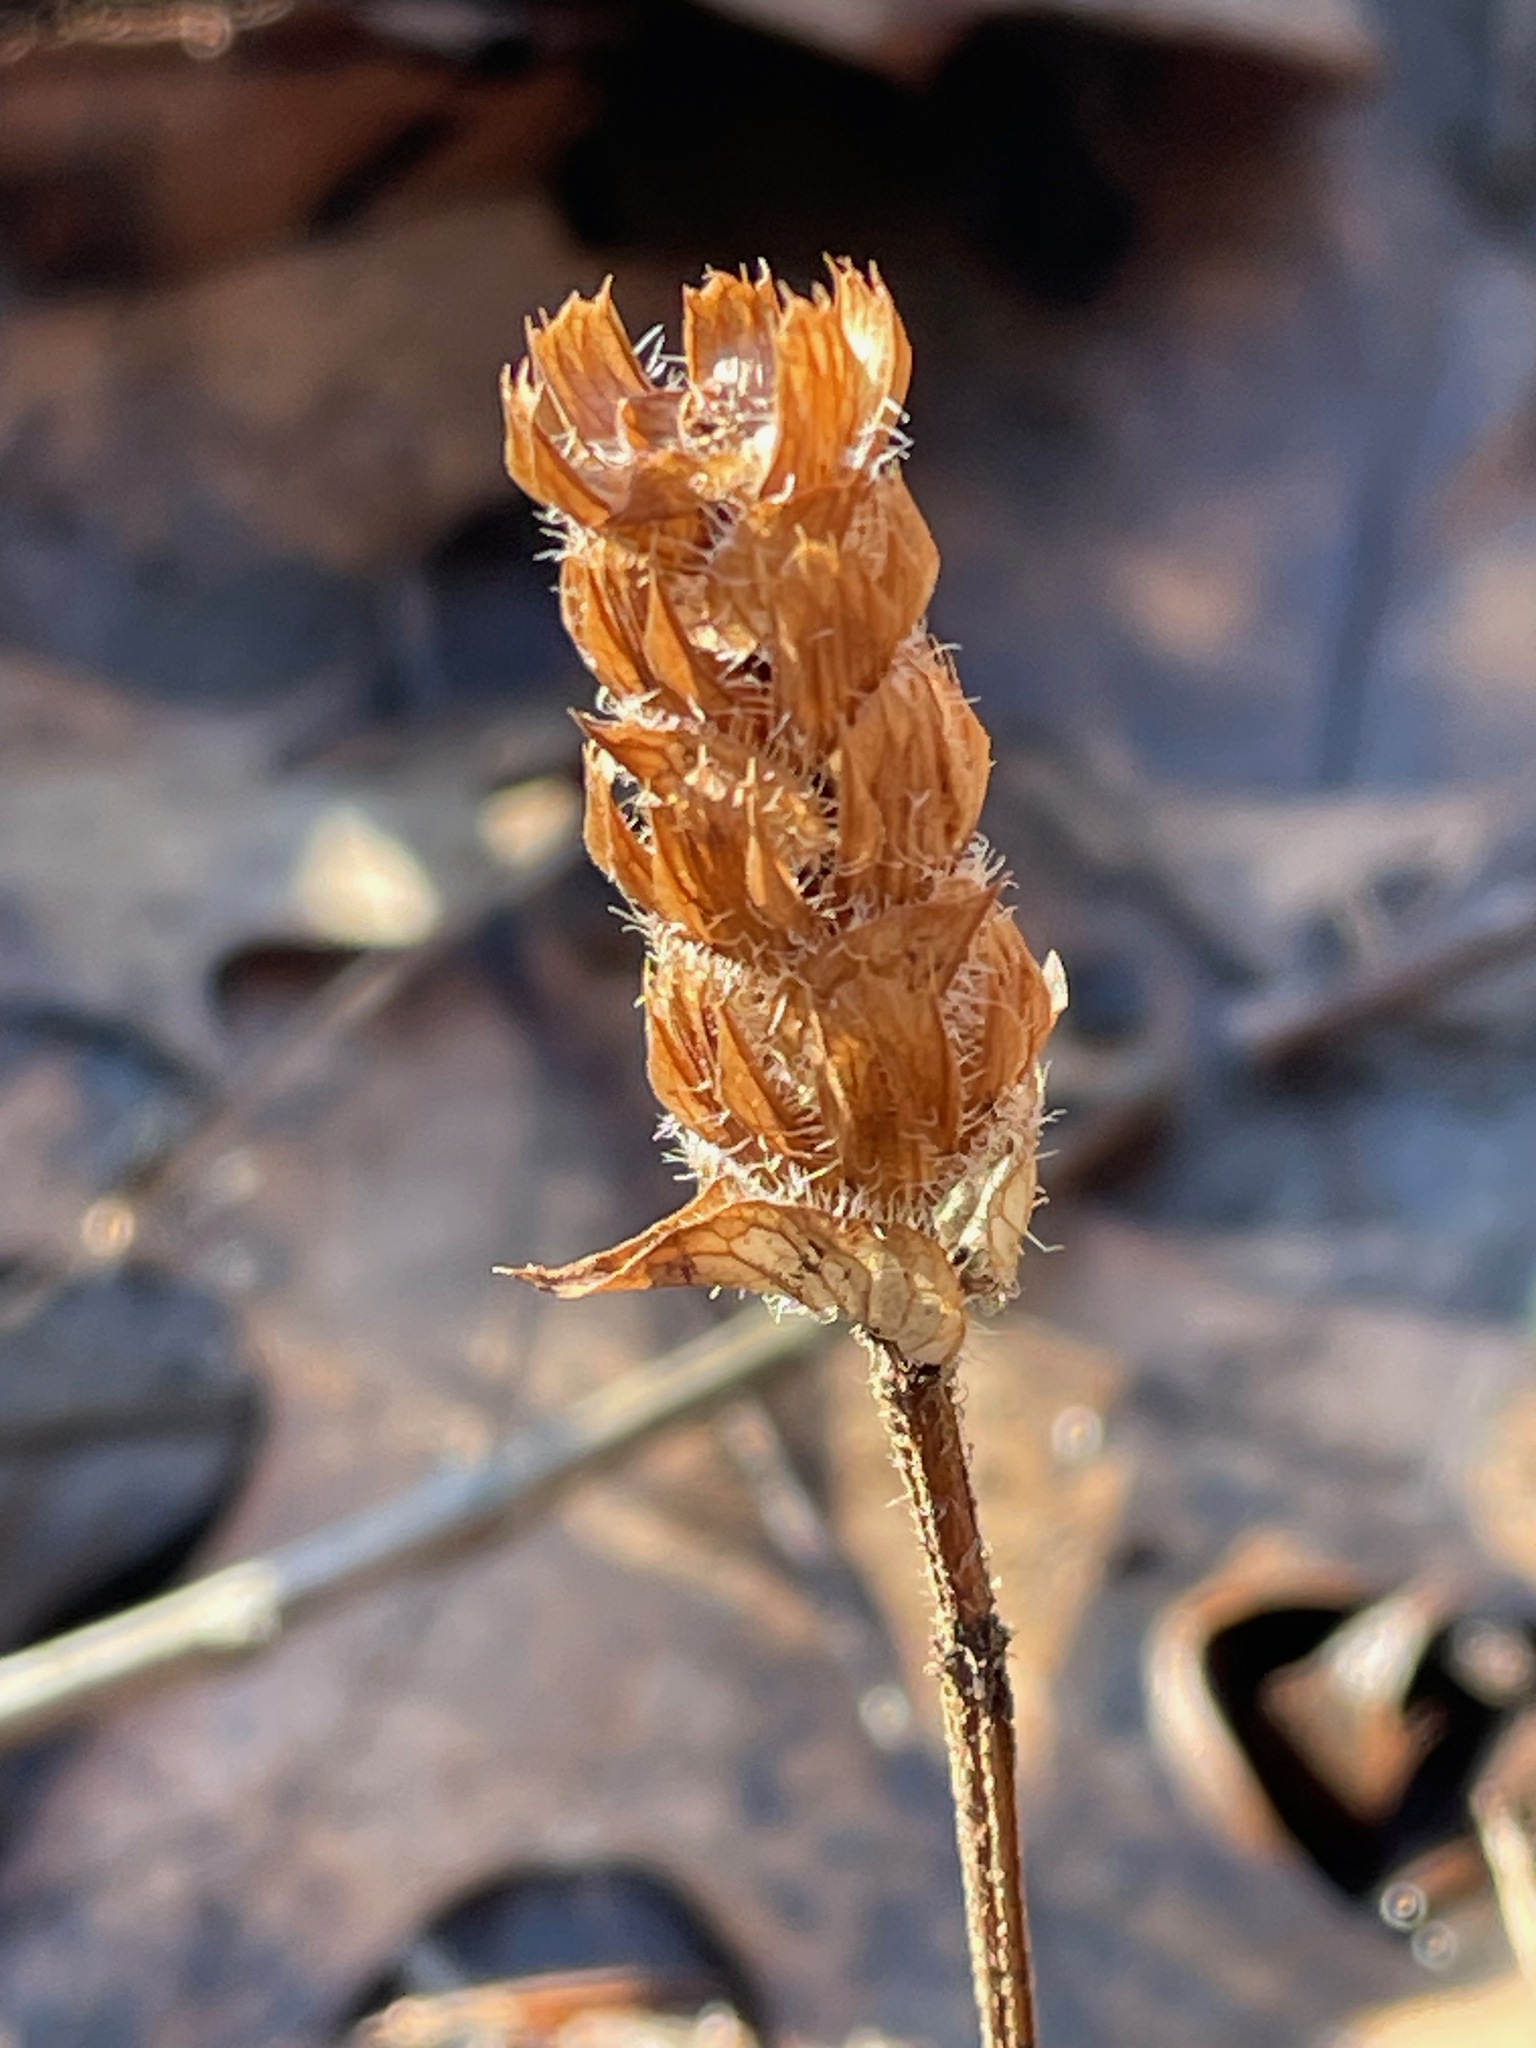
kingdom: Plantae
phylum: Tracheophyta
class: Magnoliopsida
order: Lamiales
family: Lamiaceae
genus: Prunella
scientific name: Prunella vulgaris
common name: Heal-all
